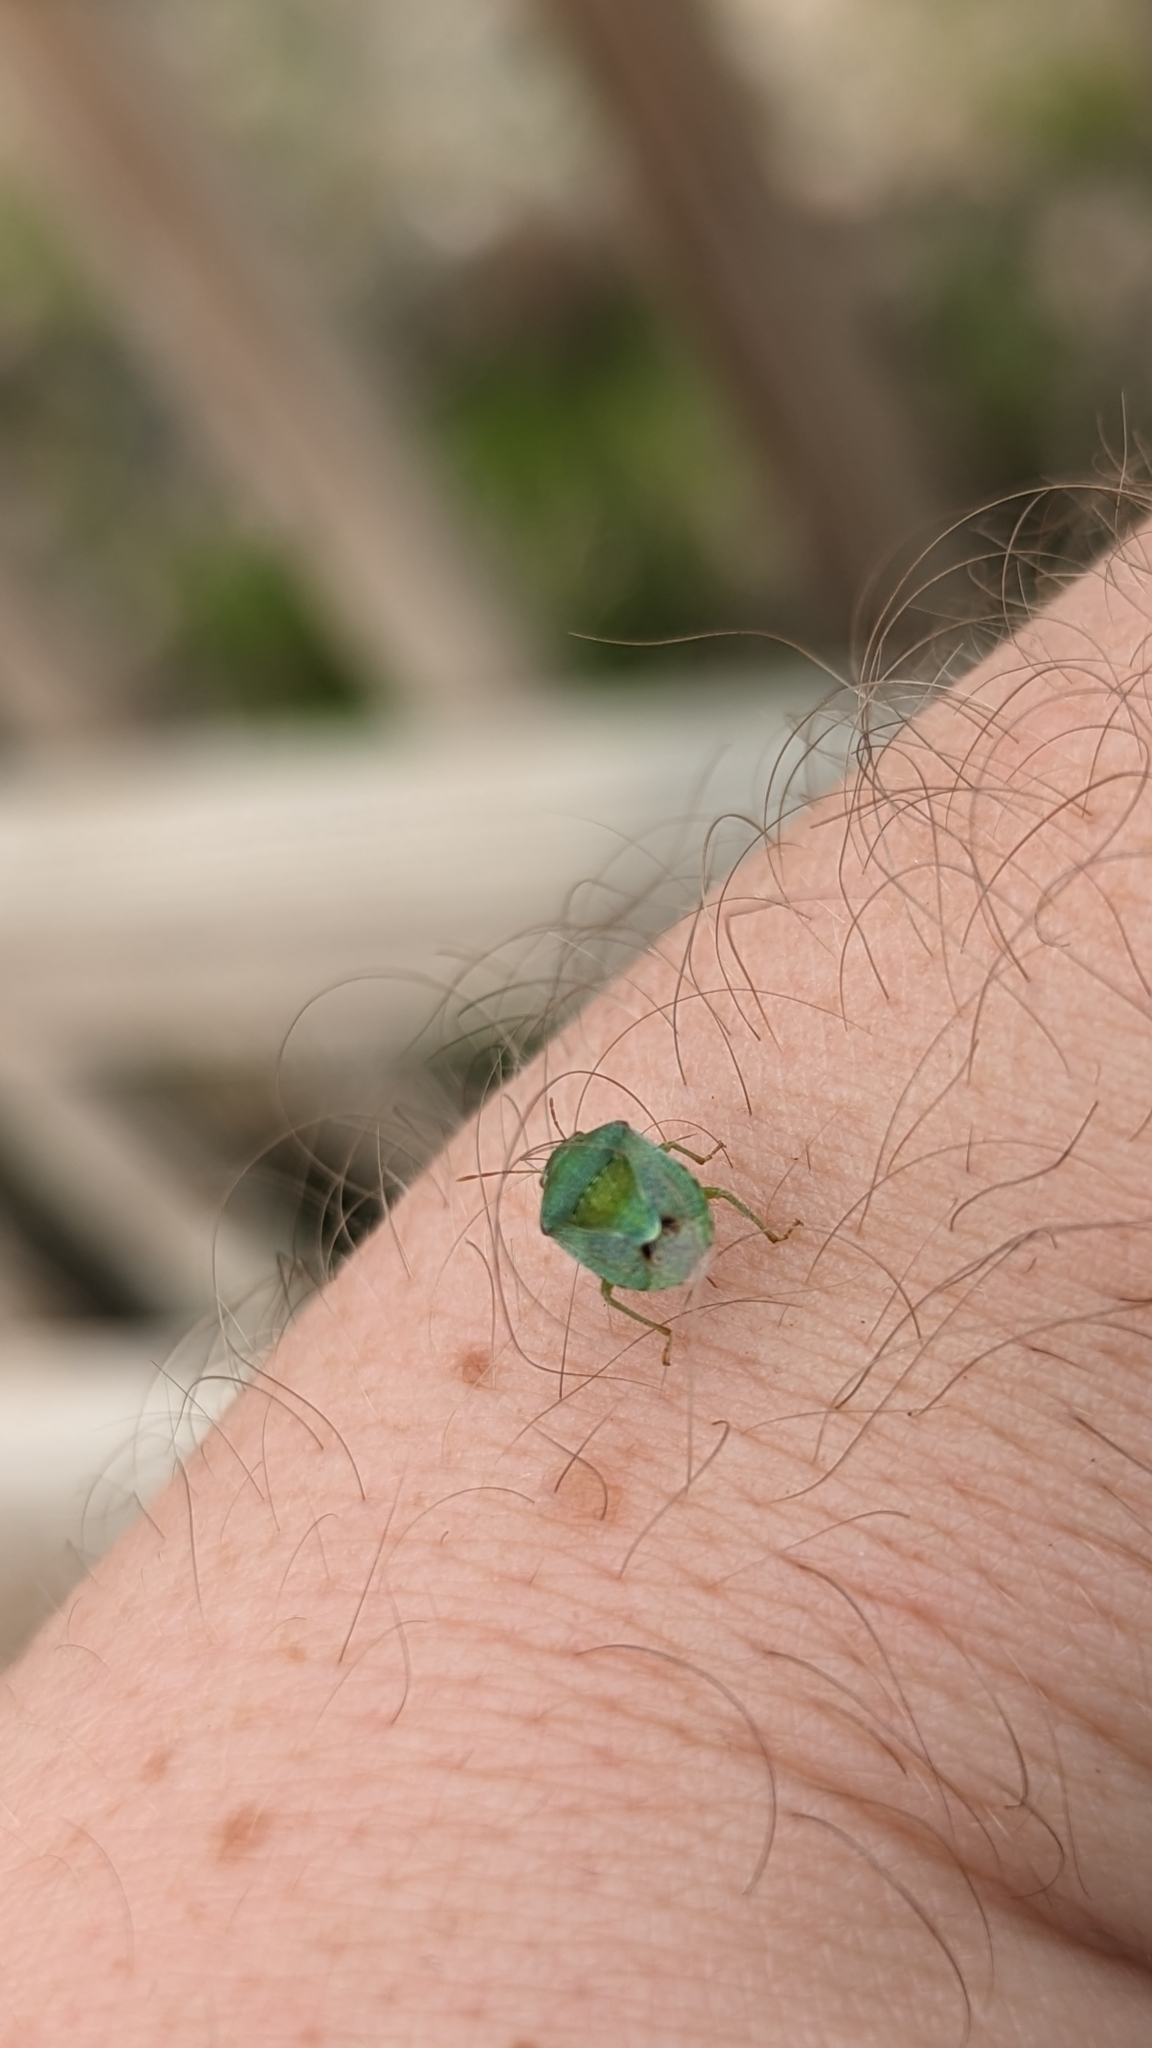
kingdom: Animalia
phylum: Arthropoda
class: Insecta
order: Hemiptera
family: Pentatomidae
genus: Tepa
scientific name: Tepa brevis
